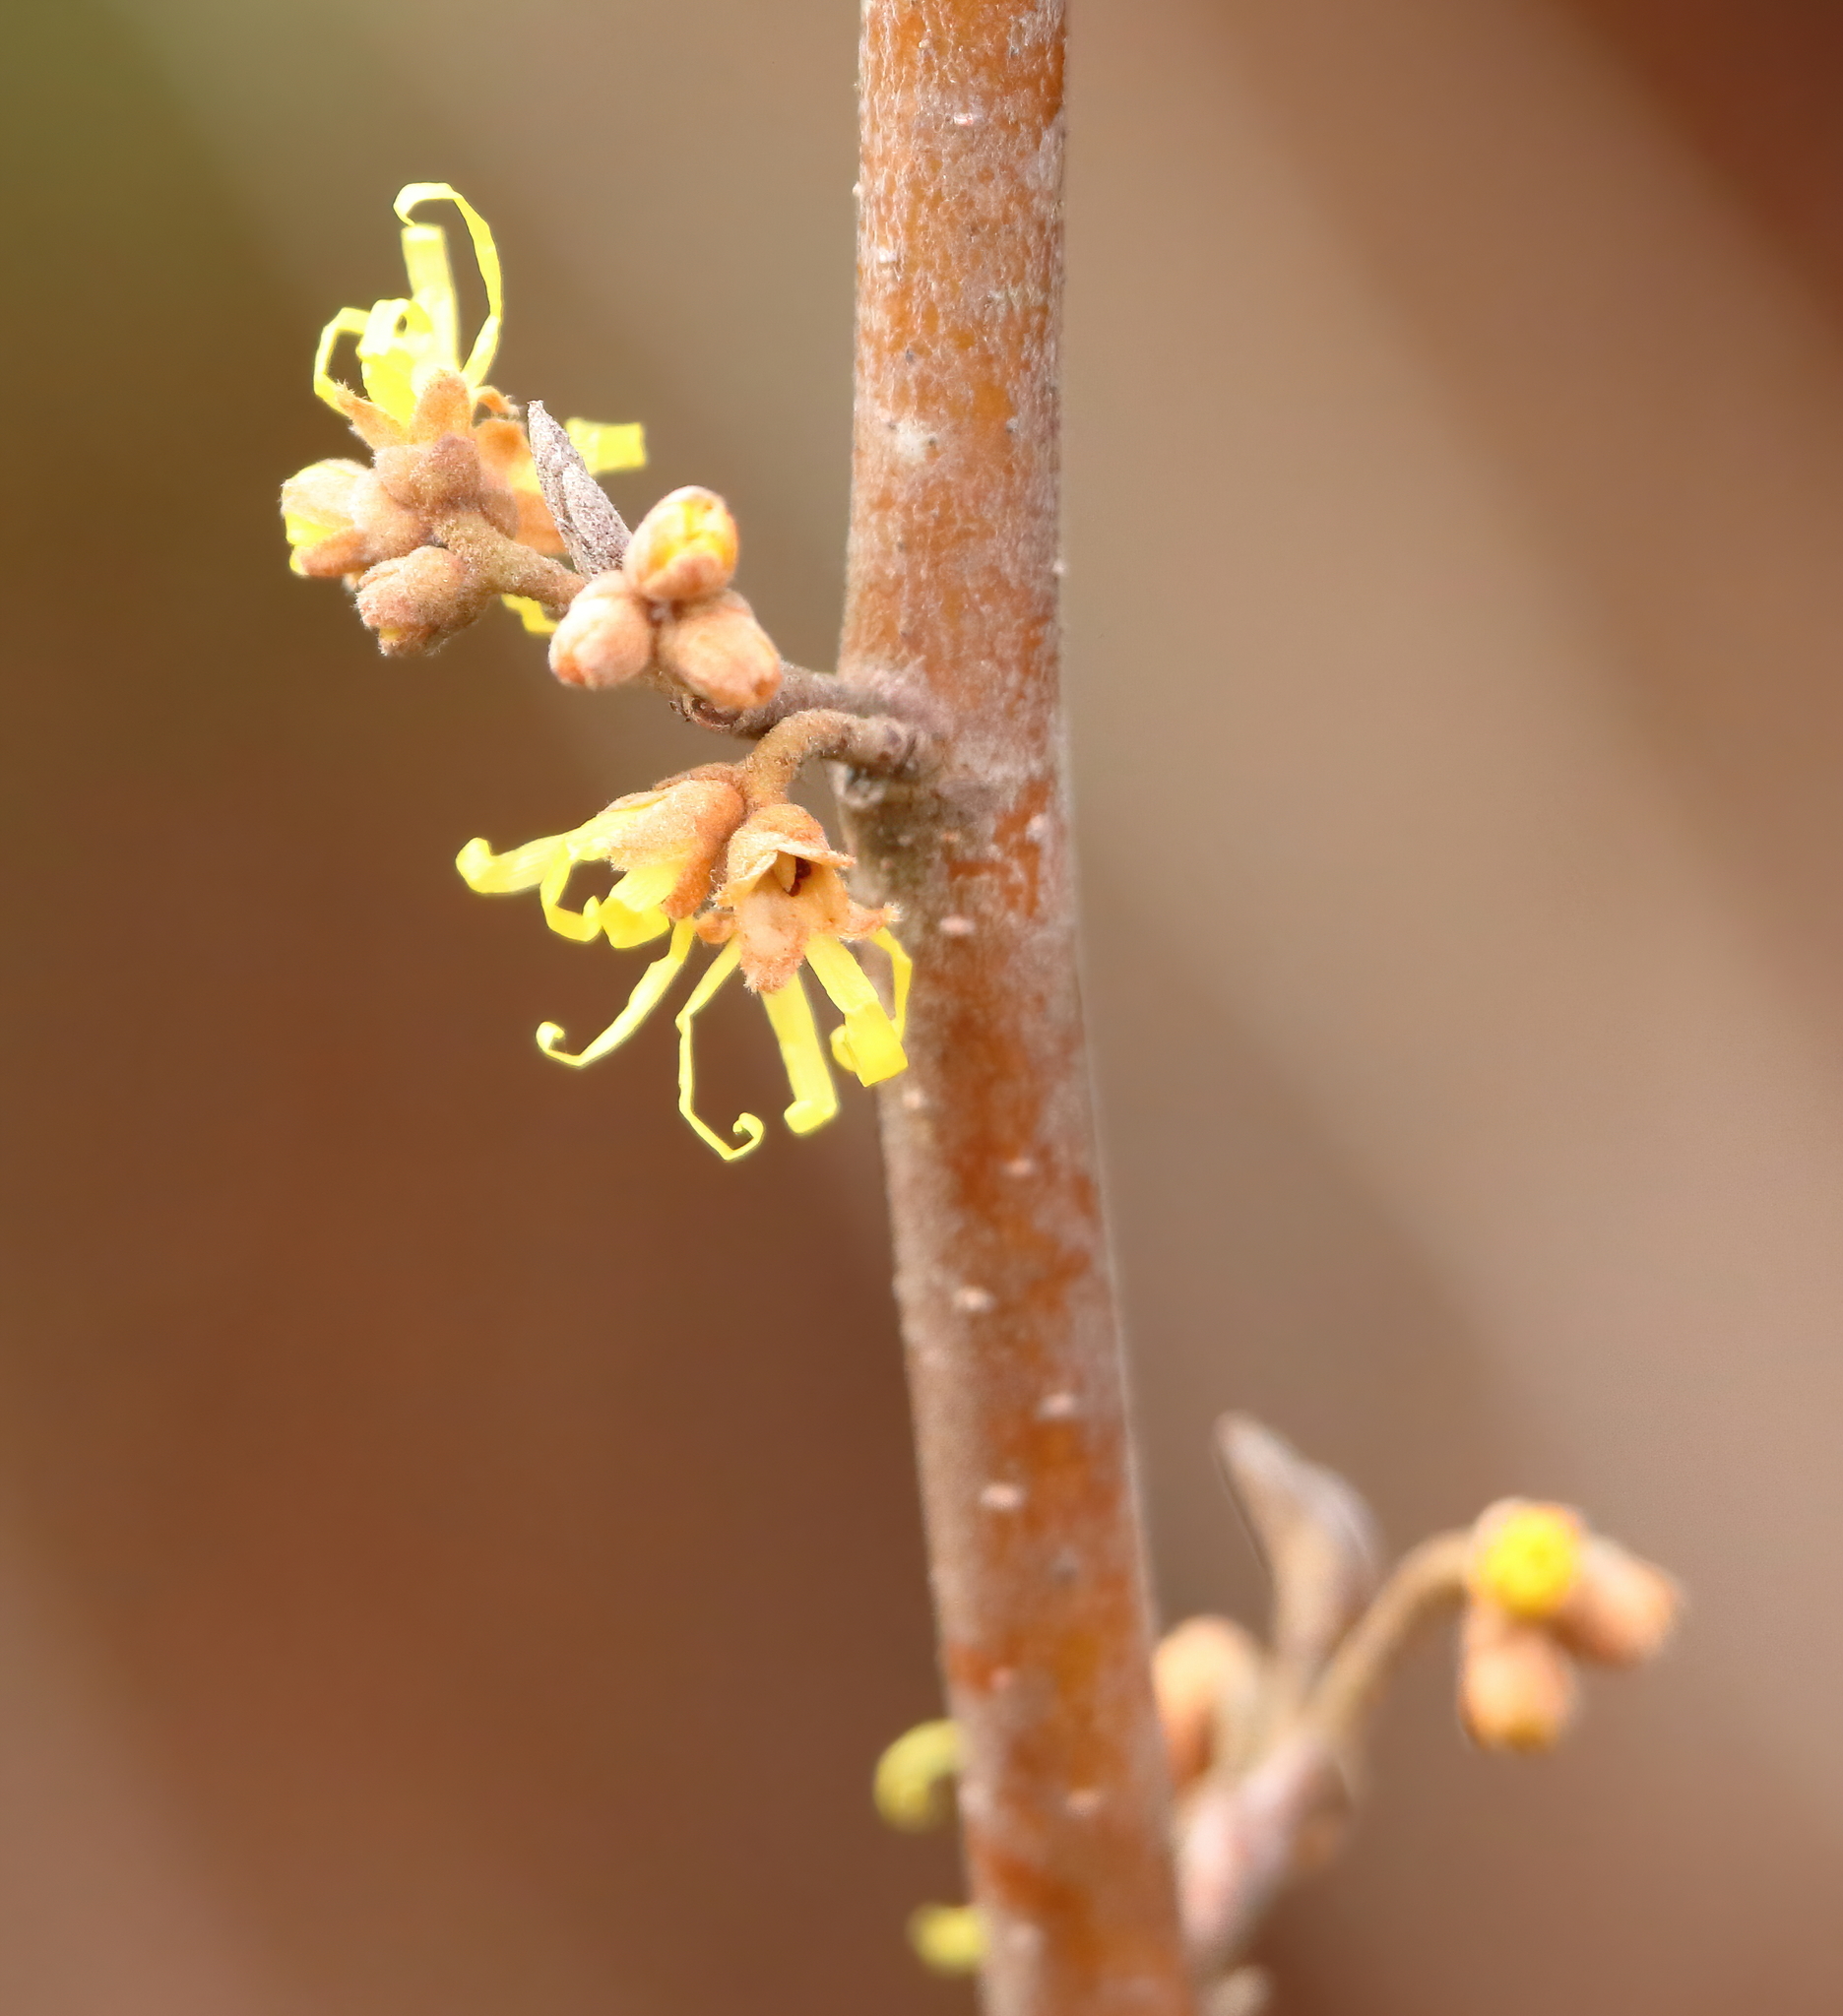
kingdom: Plantae
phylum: Tracheophyta
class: Magnoliopsida
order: Saxifragales
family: Hamamelidaceae
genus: Hamamelis
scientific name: Hamamelis virginiana
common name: Witch-hazel
